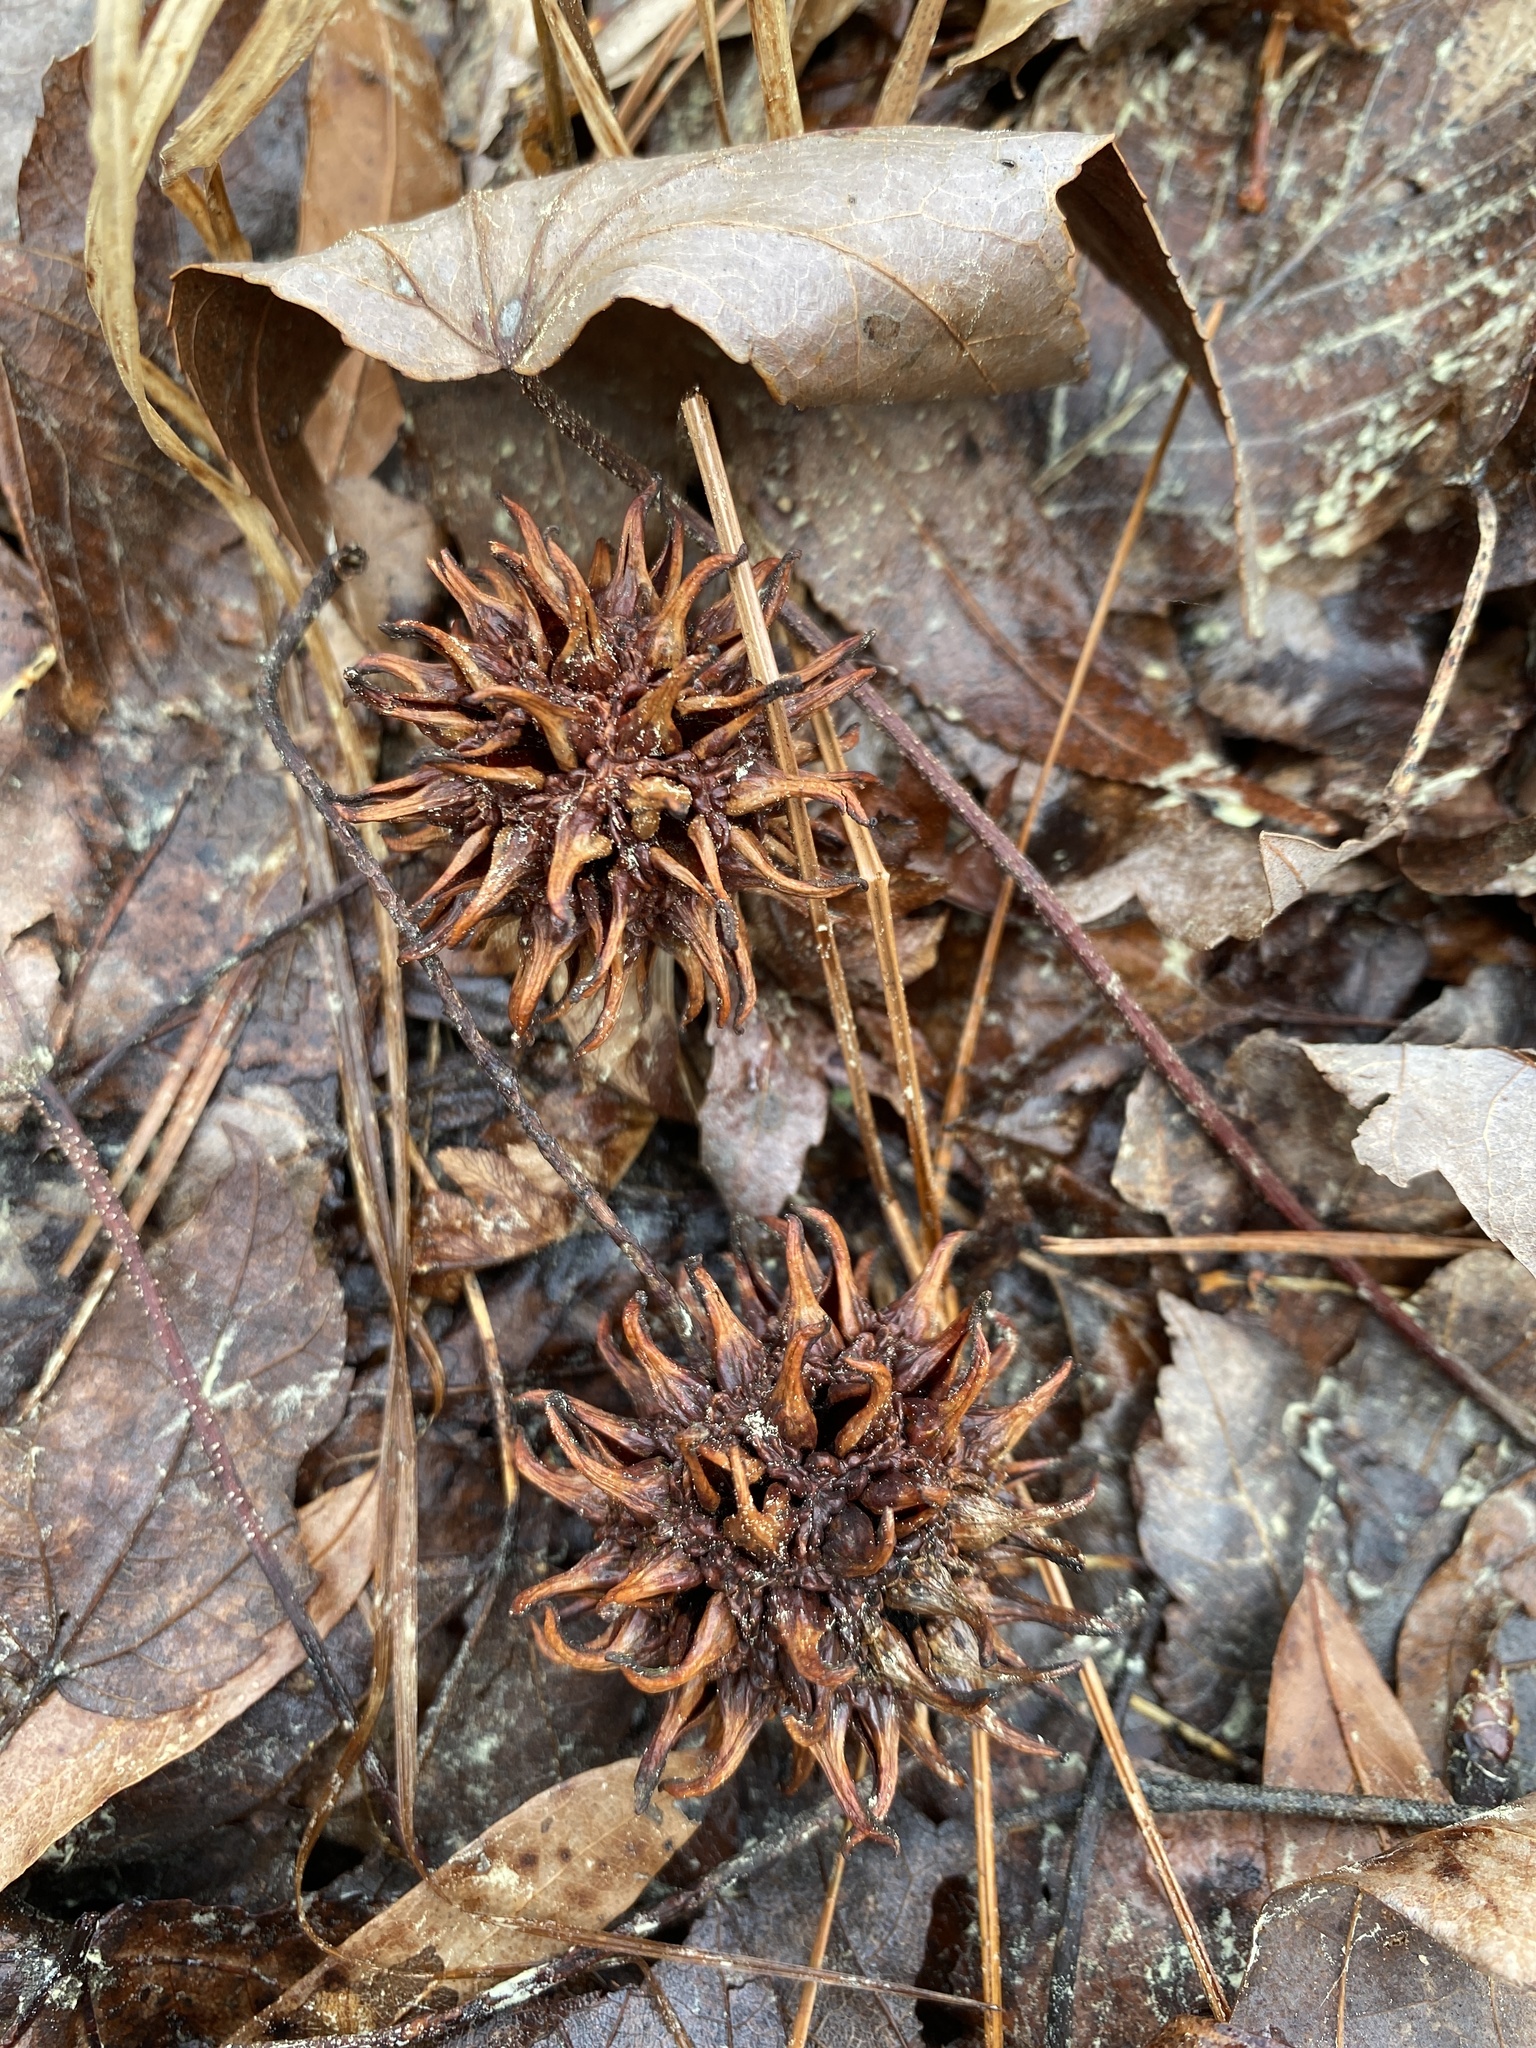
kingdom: Plantae
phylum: Tracheophyta
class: Magnoliopsida
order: Saxifragales
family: Altingiaceae
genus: Liquidambar
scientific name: Liquidambar styraciflua
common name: Sweet gum
